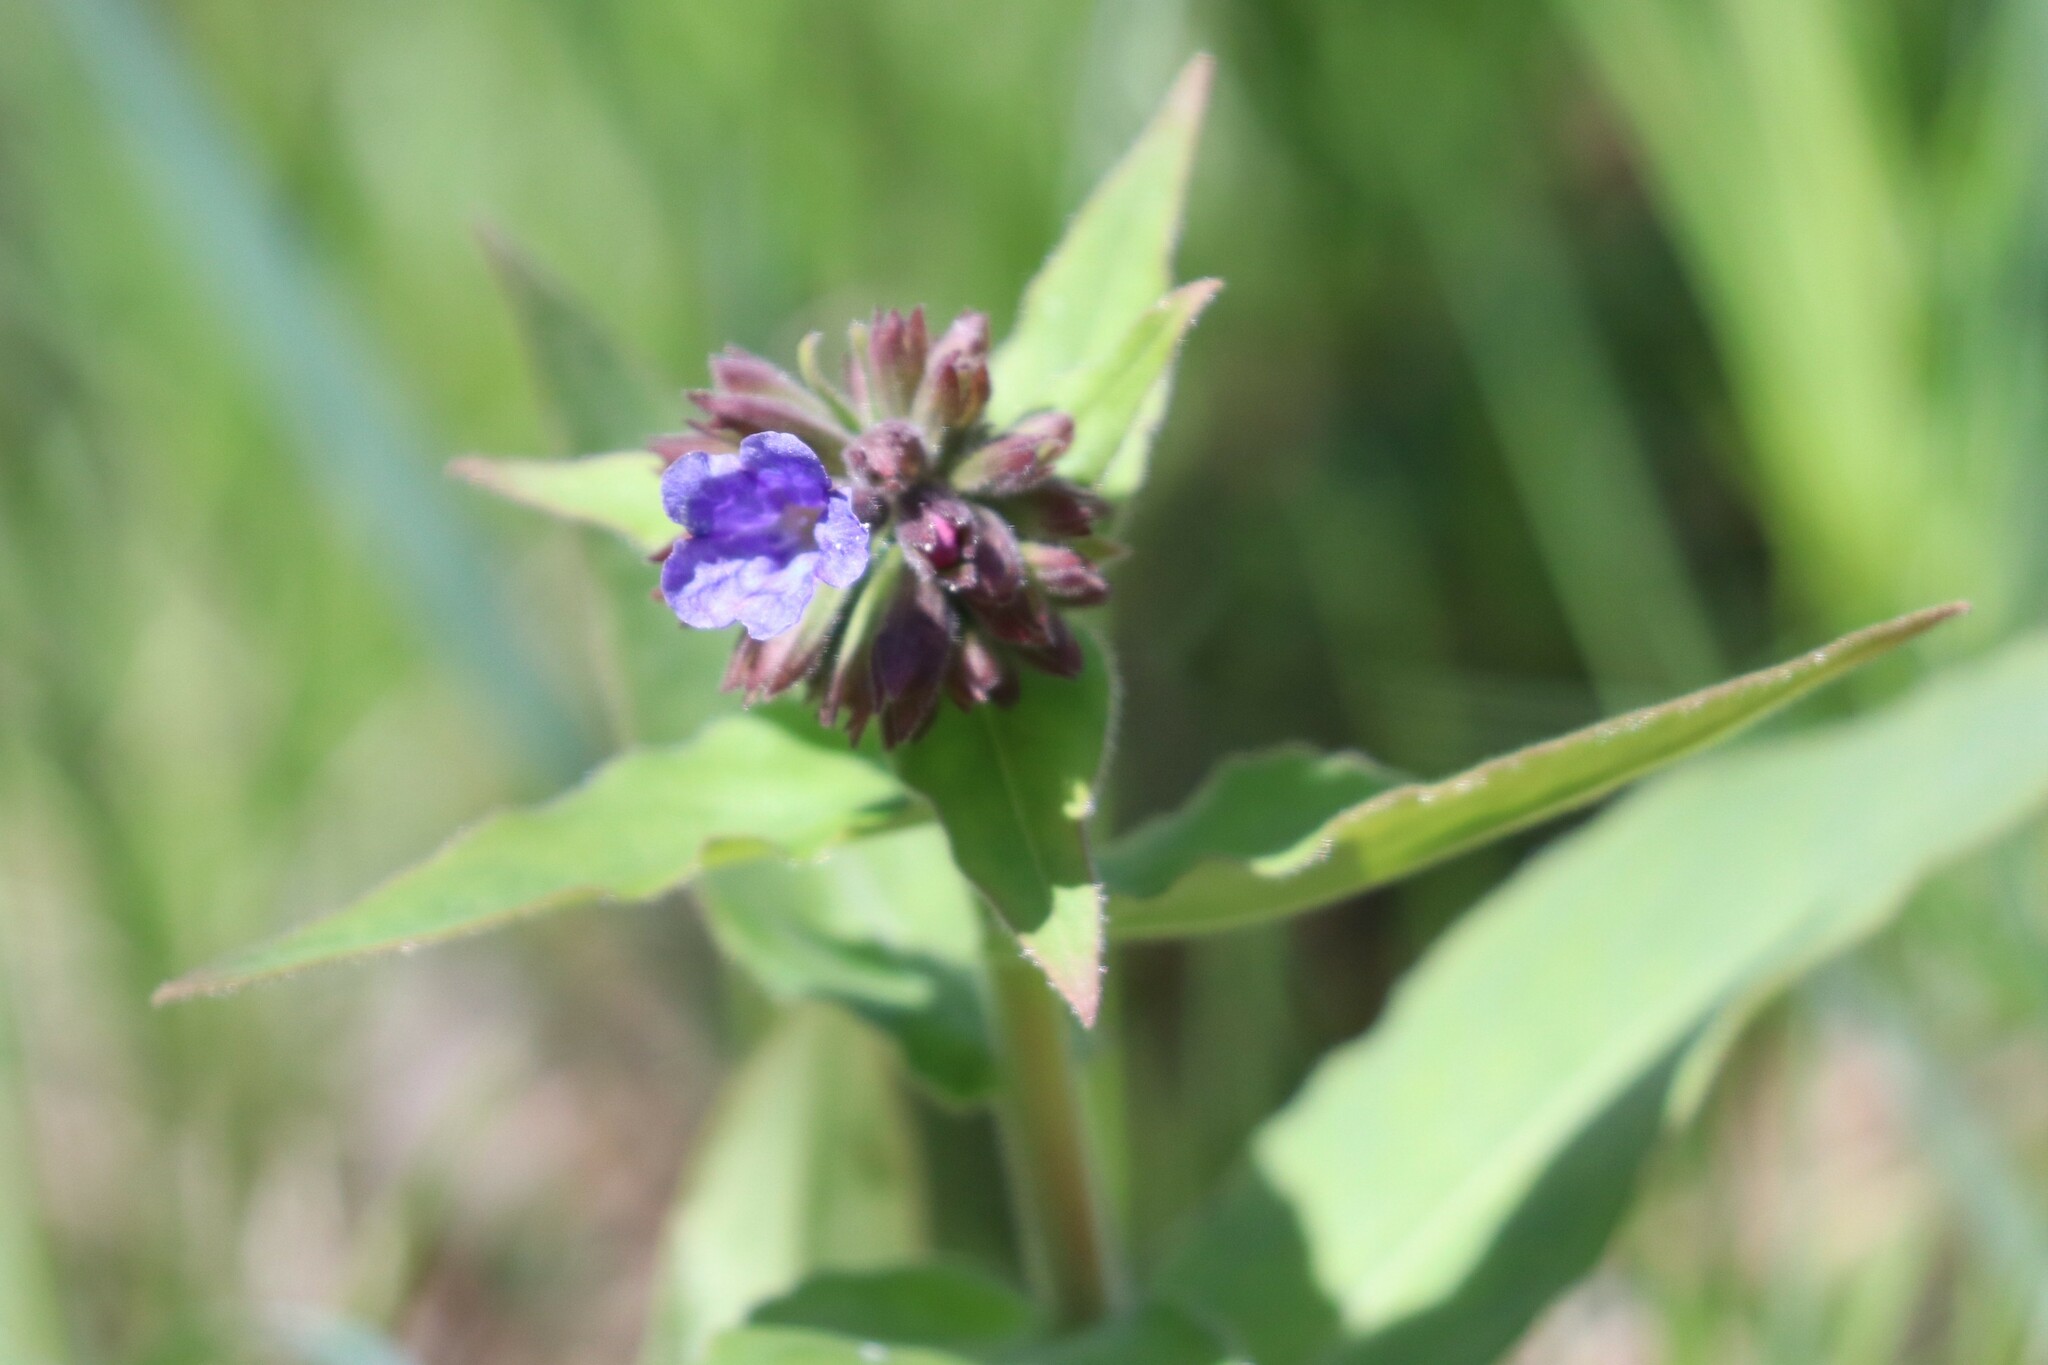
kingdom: Plantae
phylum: Tracheophyta
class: Magnoliopsida
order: Boraginales
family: Boraginaceae
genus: Pulmonaria
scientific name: Pulmonaria mollis
